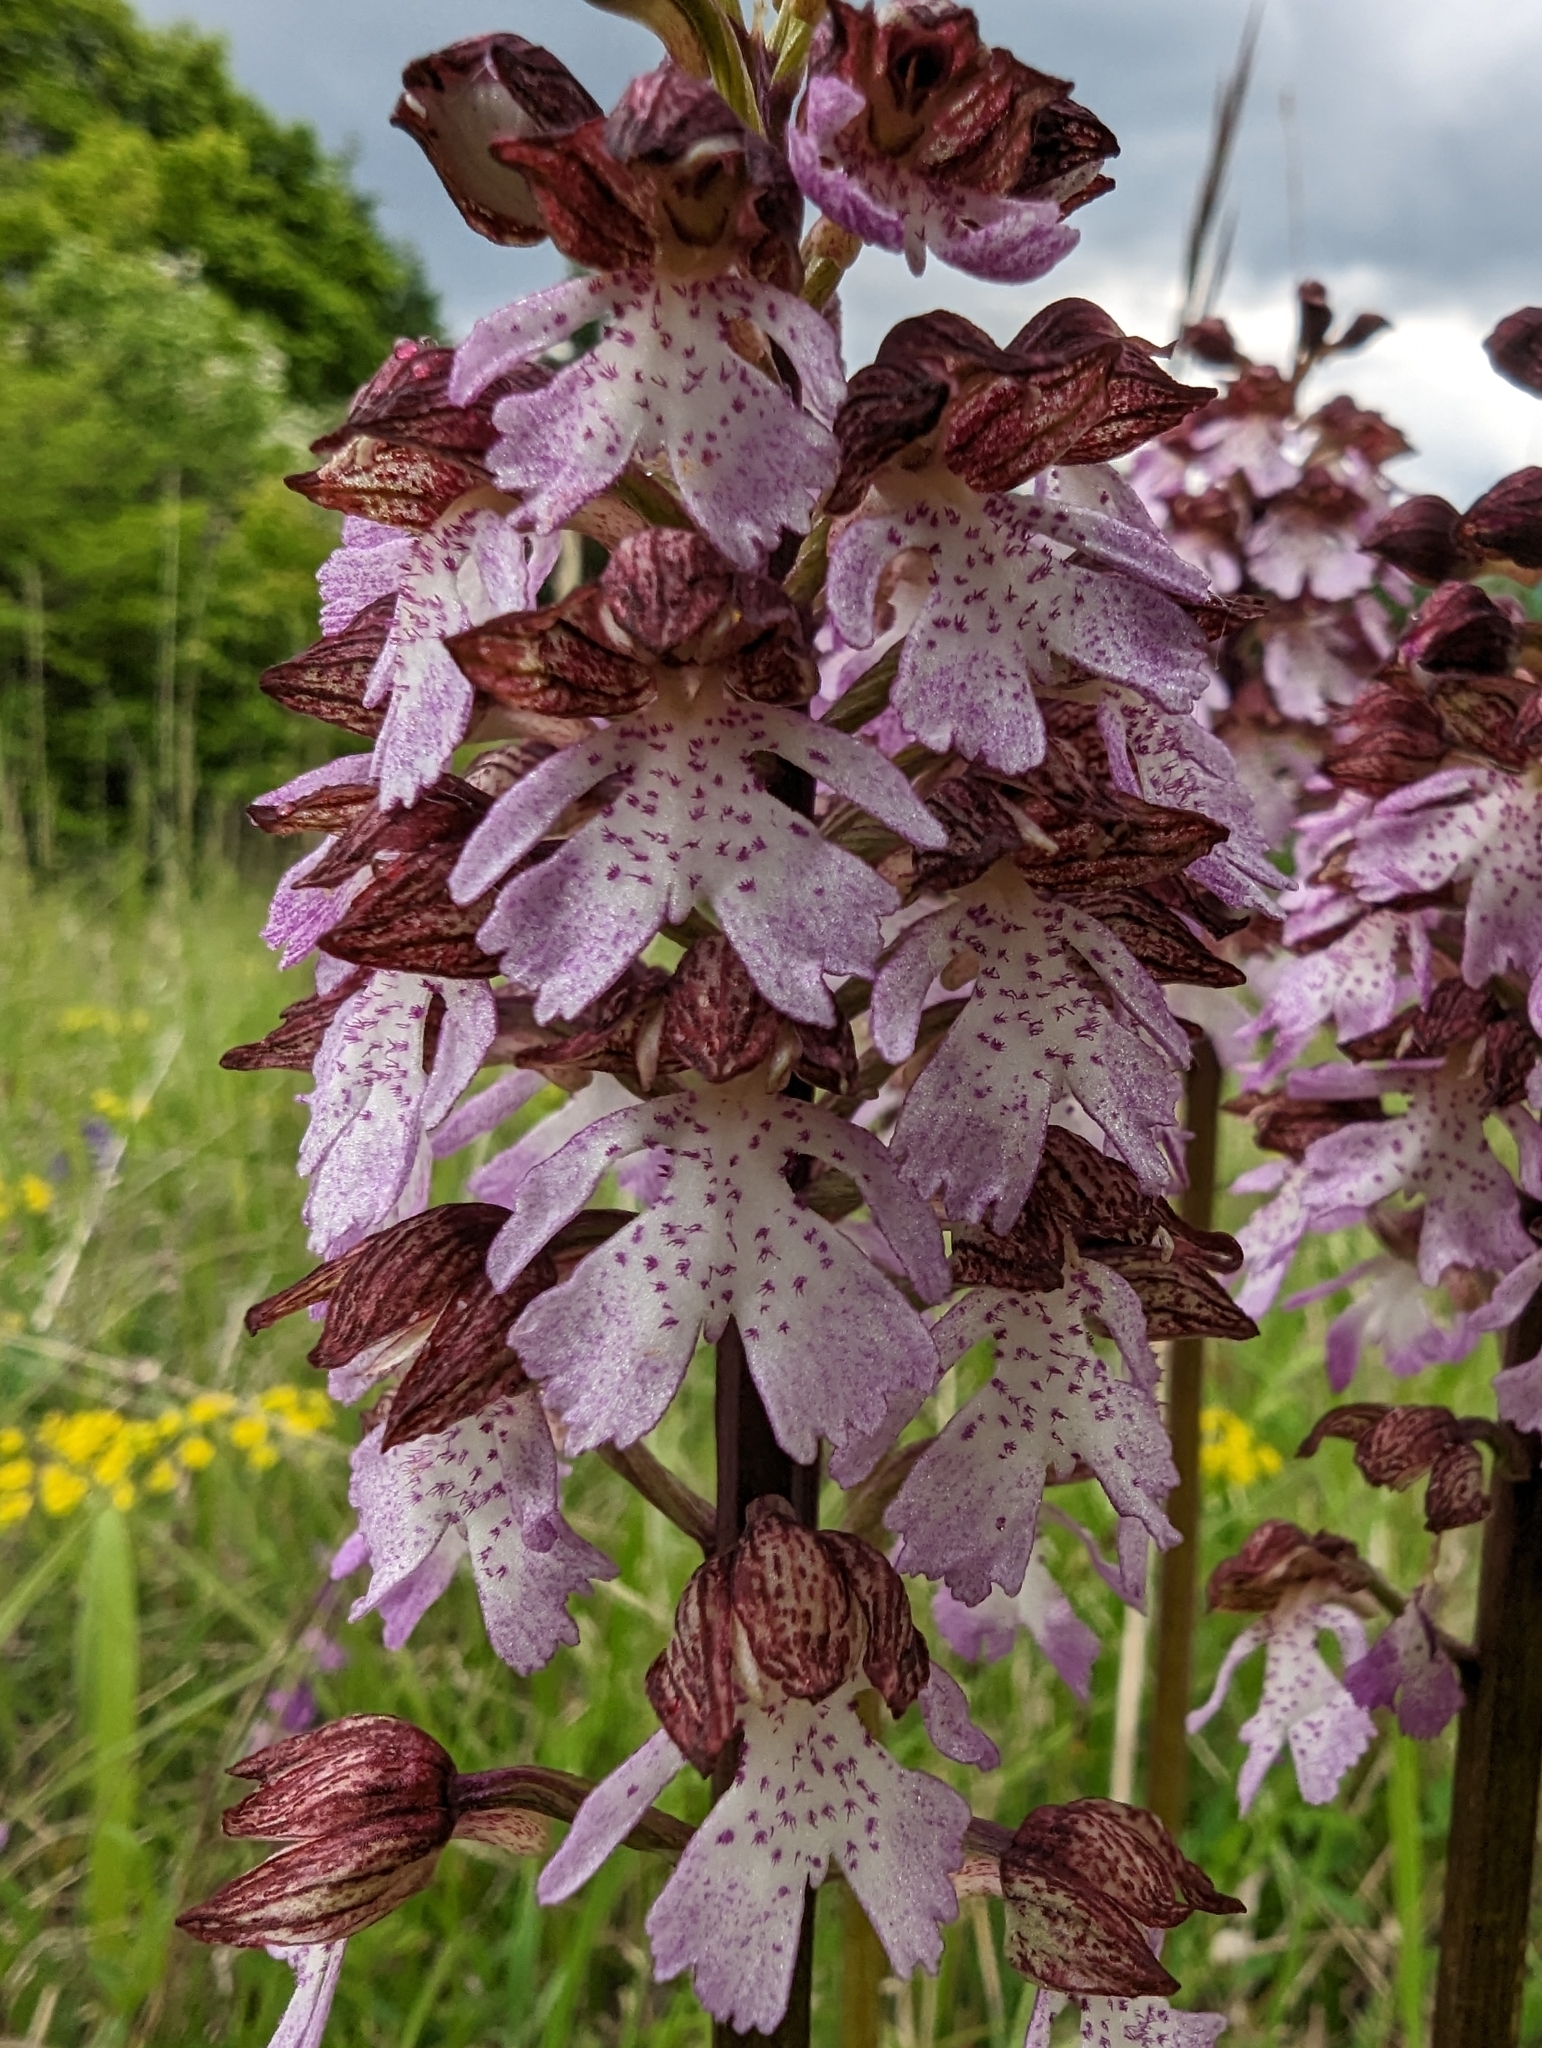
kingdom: Plantae
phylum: Tracheophyta
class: Liliopsida
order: Asparagales
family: Orchidaceae
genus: Orchis
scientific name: Orchis purpurea
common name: Lady orchid
